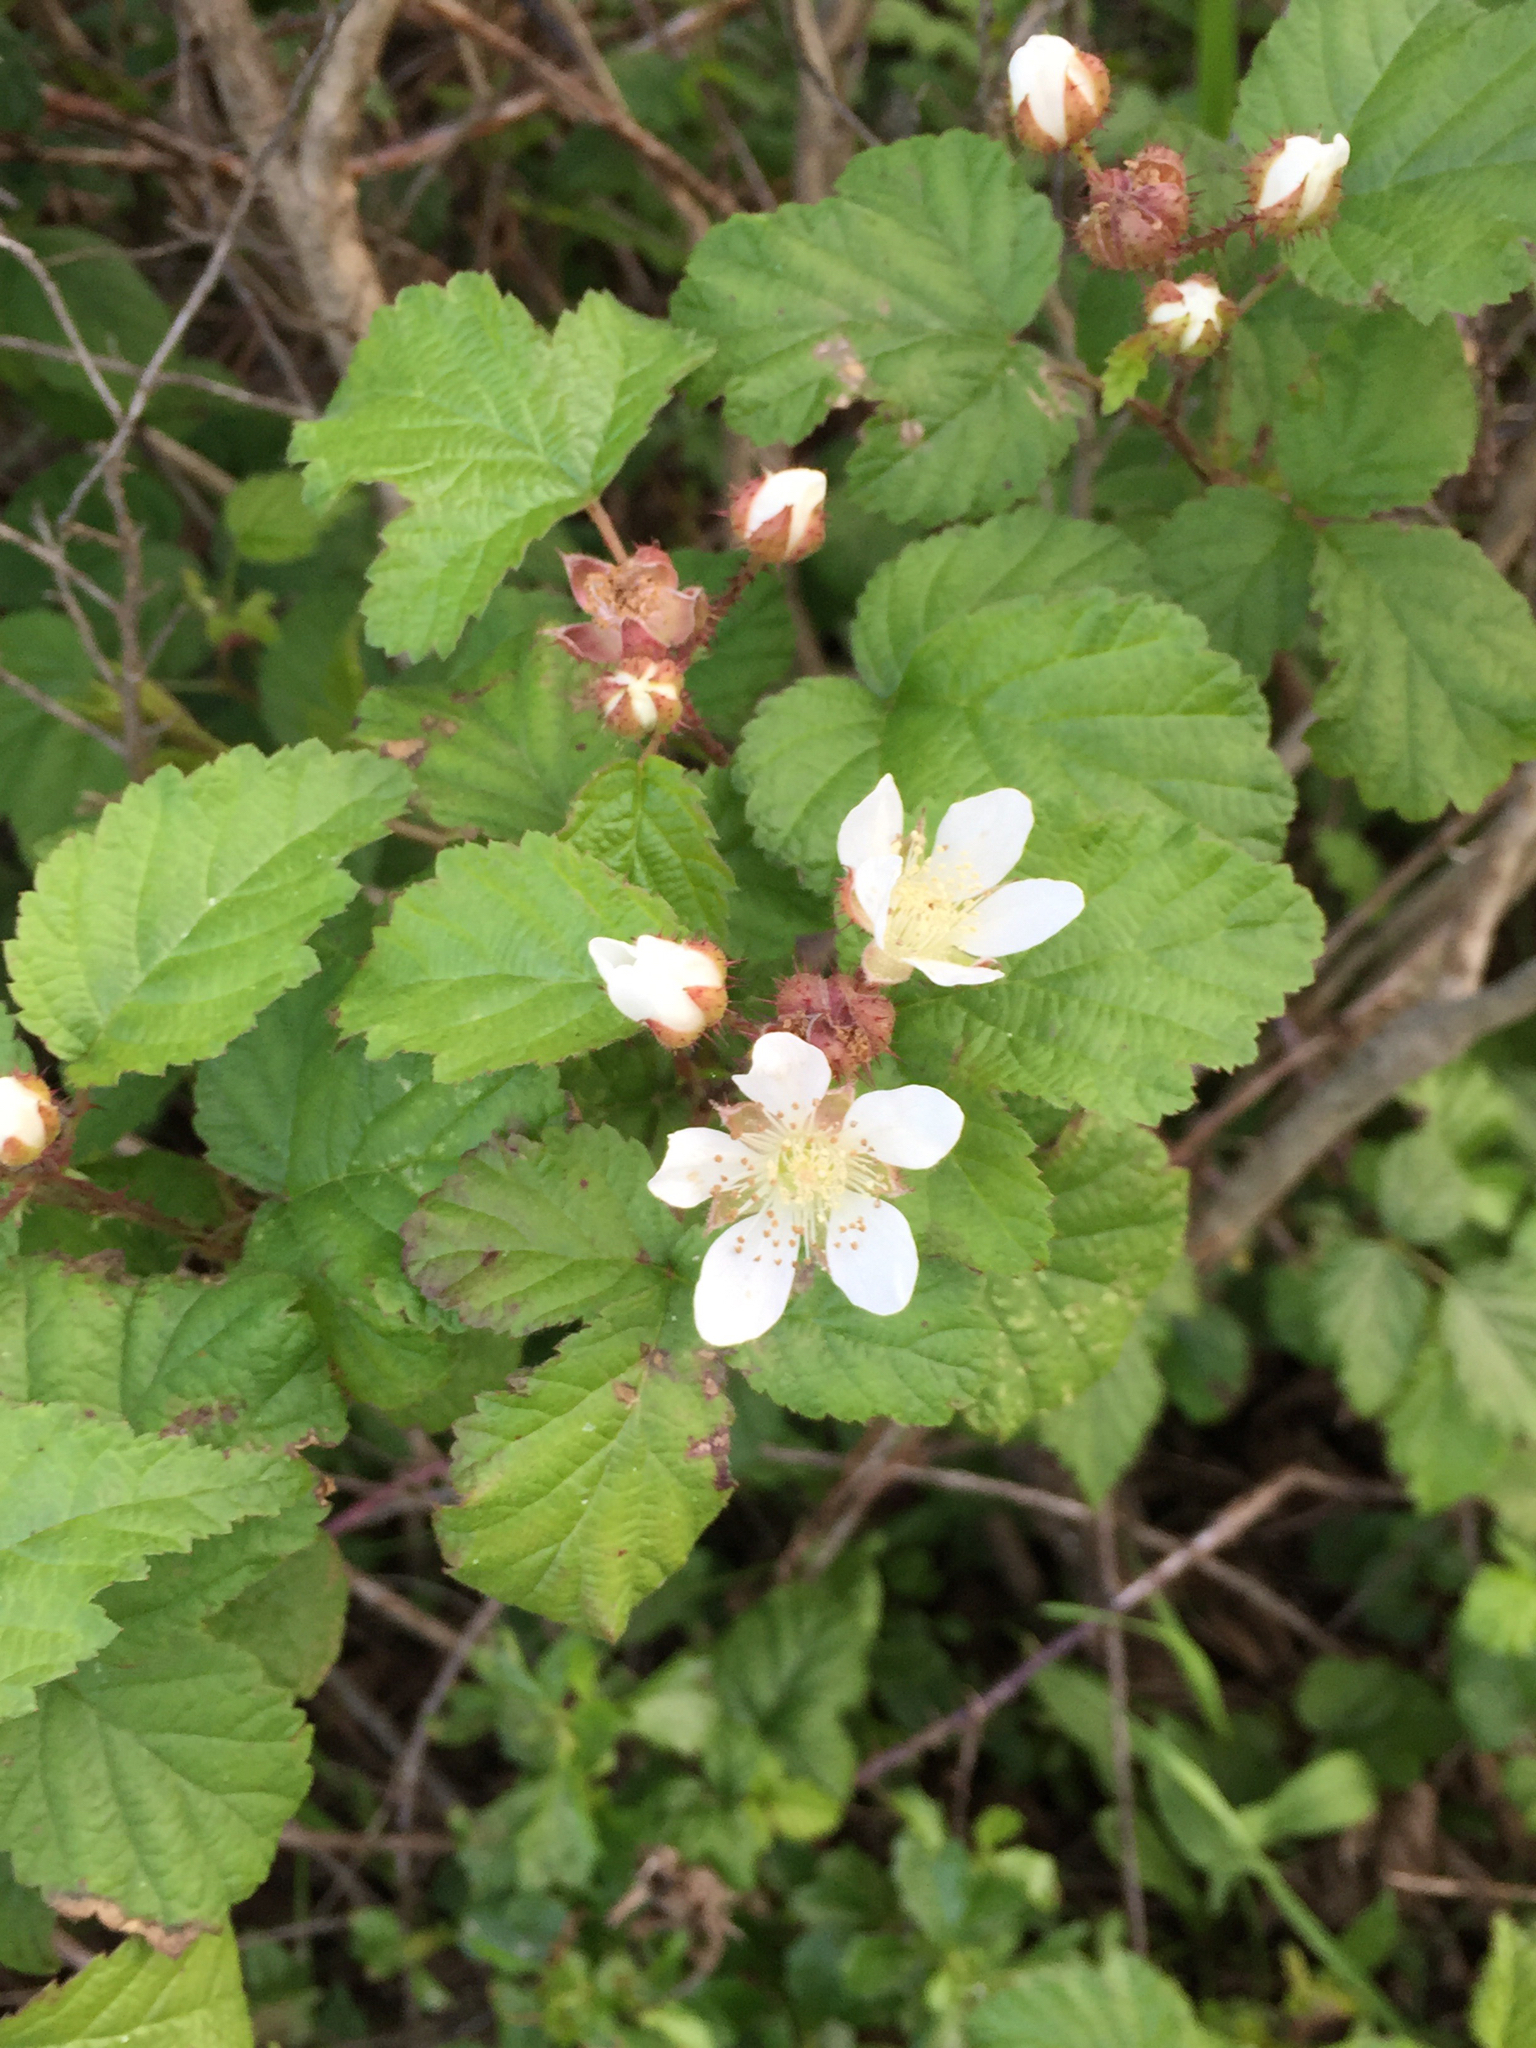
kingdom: Plantae
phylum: Tracheophyta
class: Magnoliopsida
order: Rosales
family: Rosaceae
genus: Rubus
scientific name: Rubus ursinus
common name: Pacific blackberry
